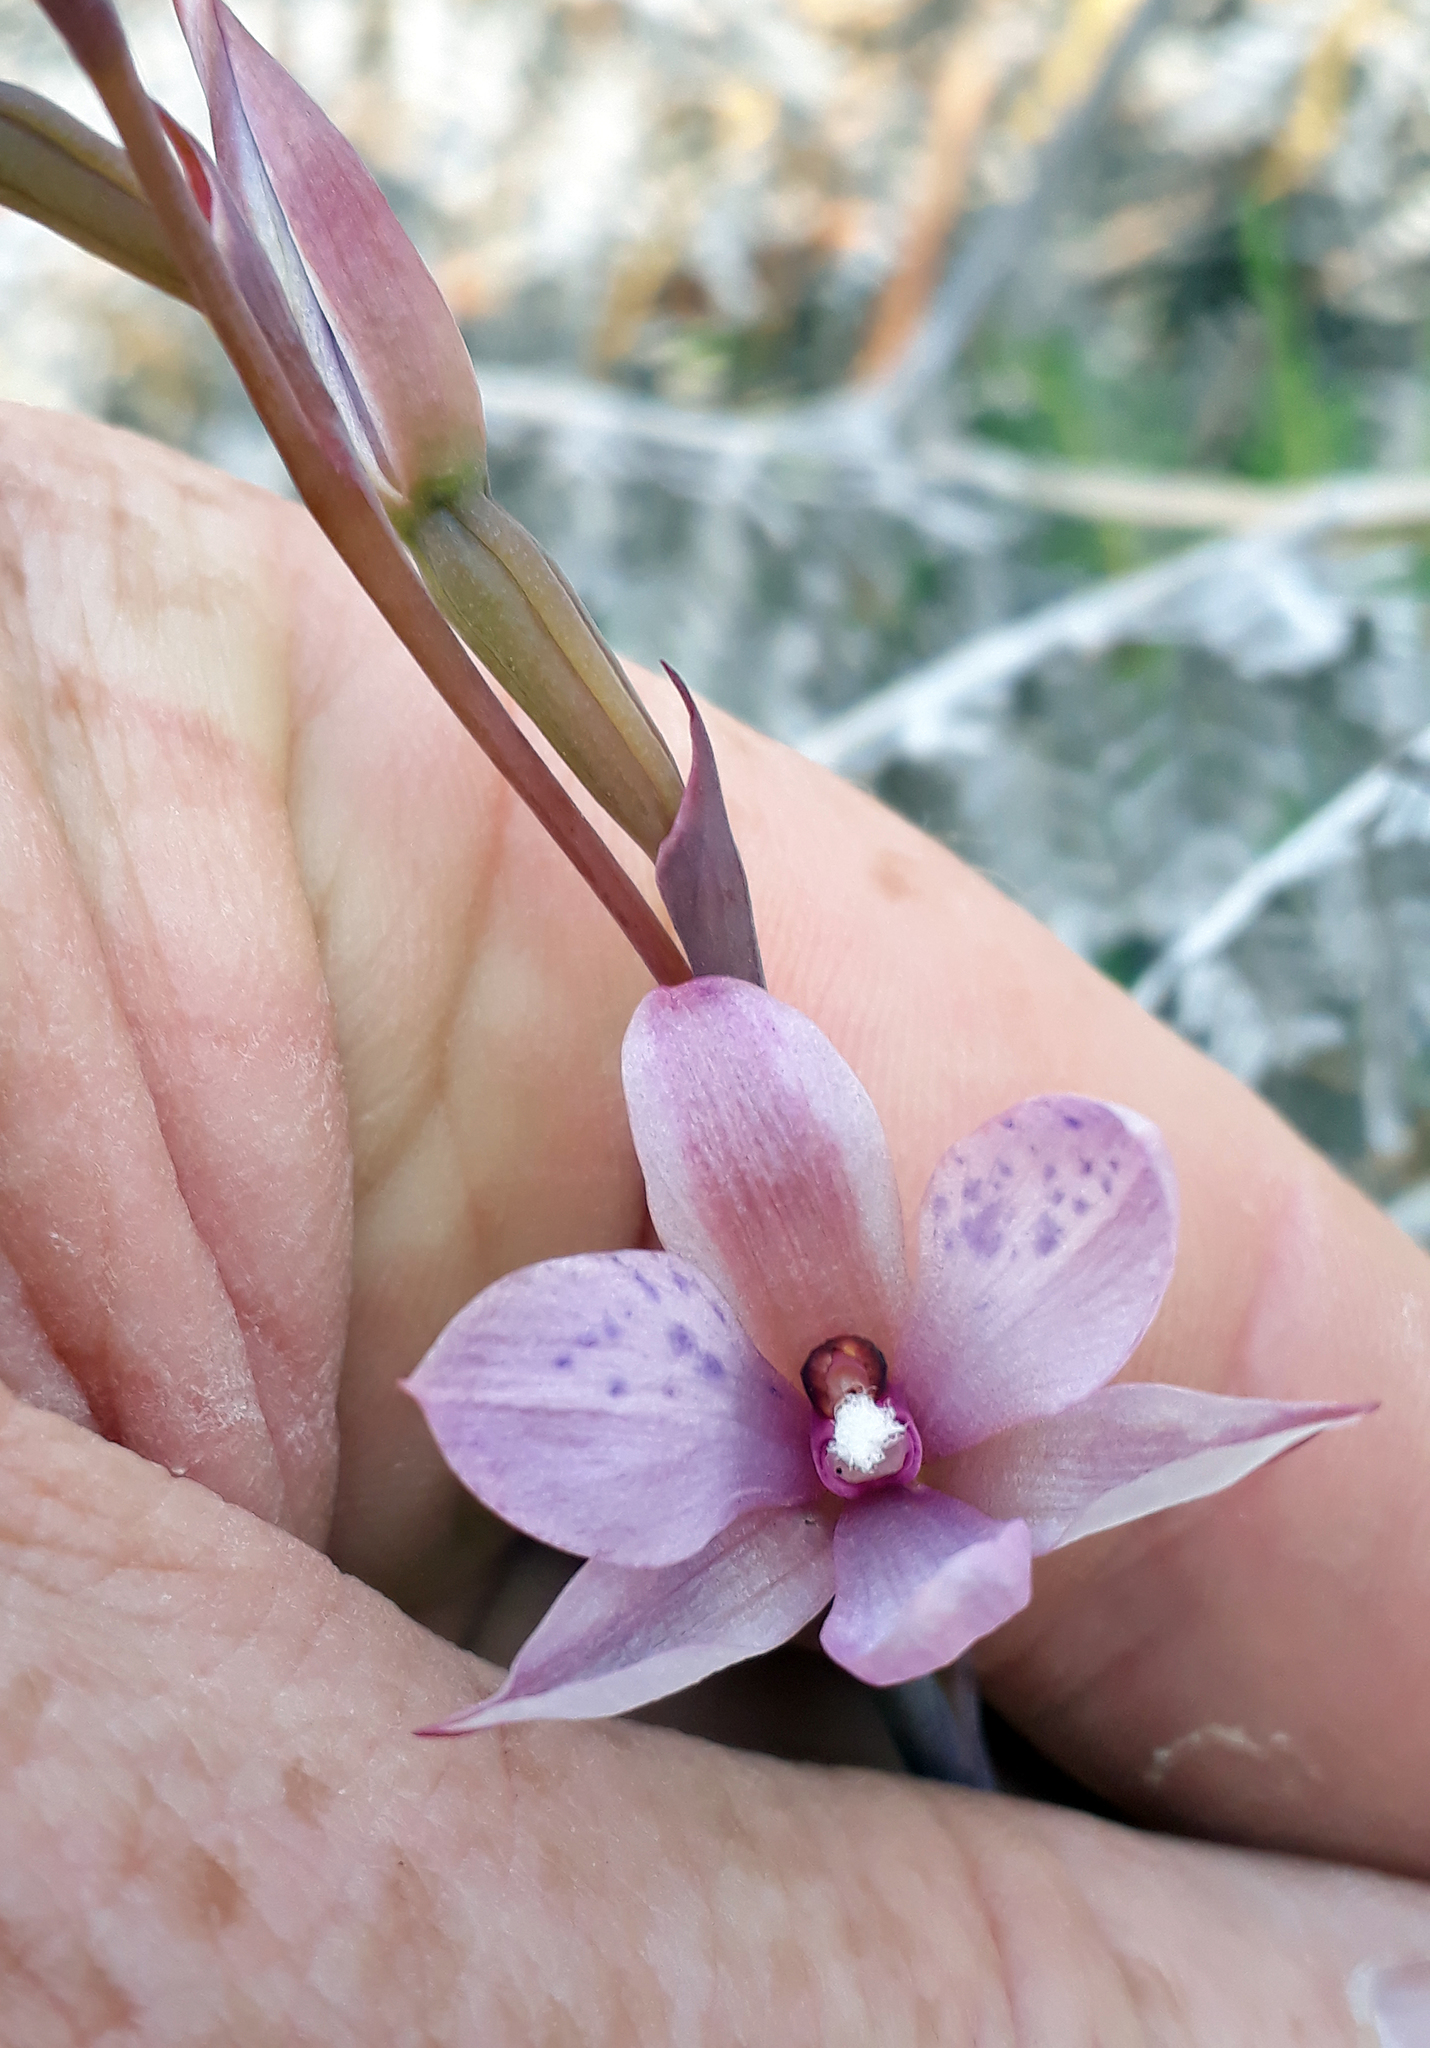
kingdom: Plantae
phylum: Tracheophyta
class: Liliopsida
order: Asparagales
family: Orchidaceae
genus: Thelymitra
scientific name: Thelymitra nervosa
